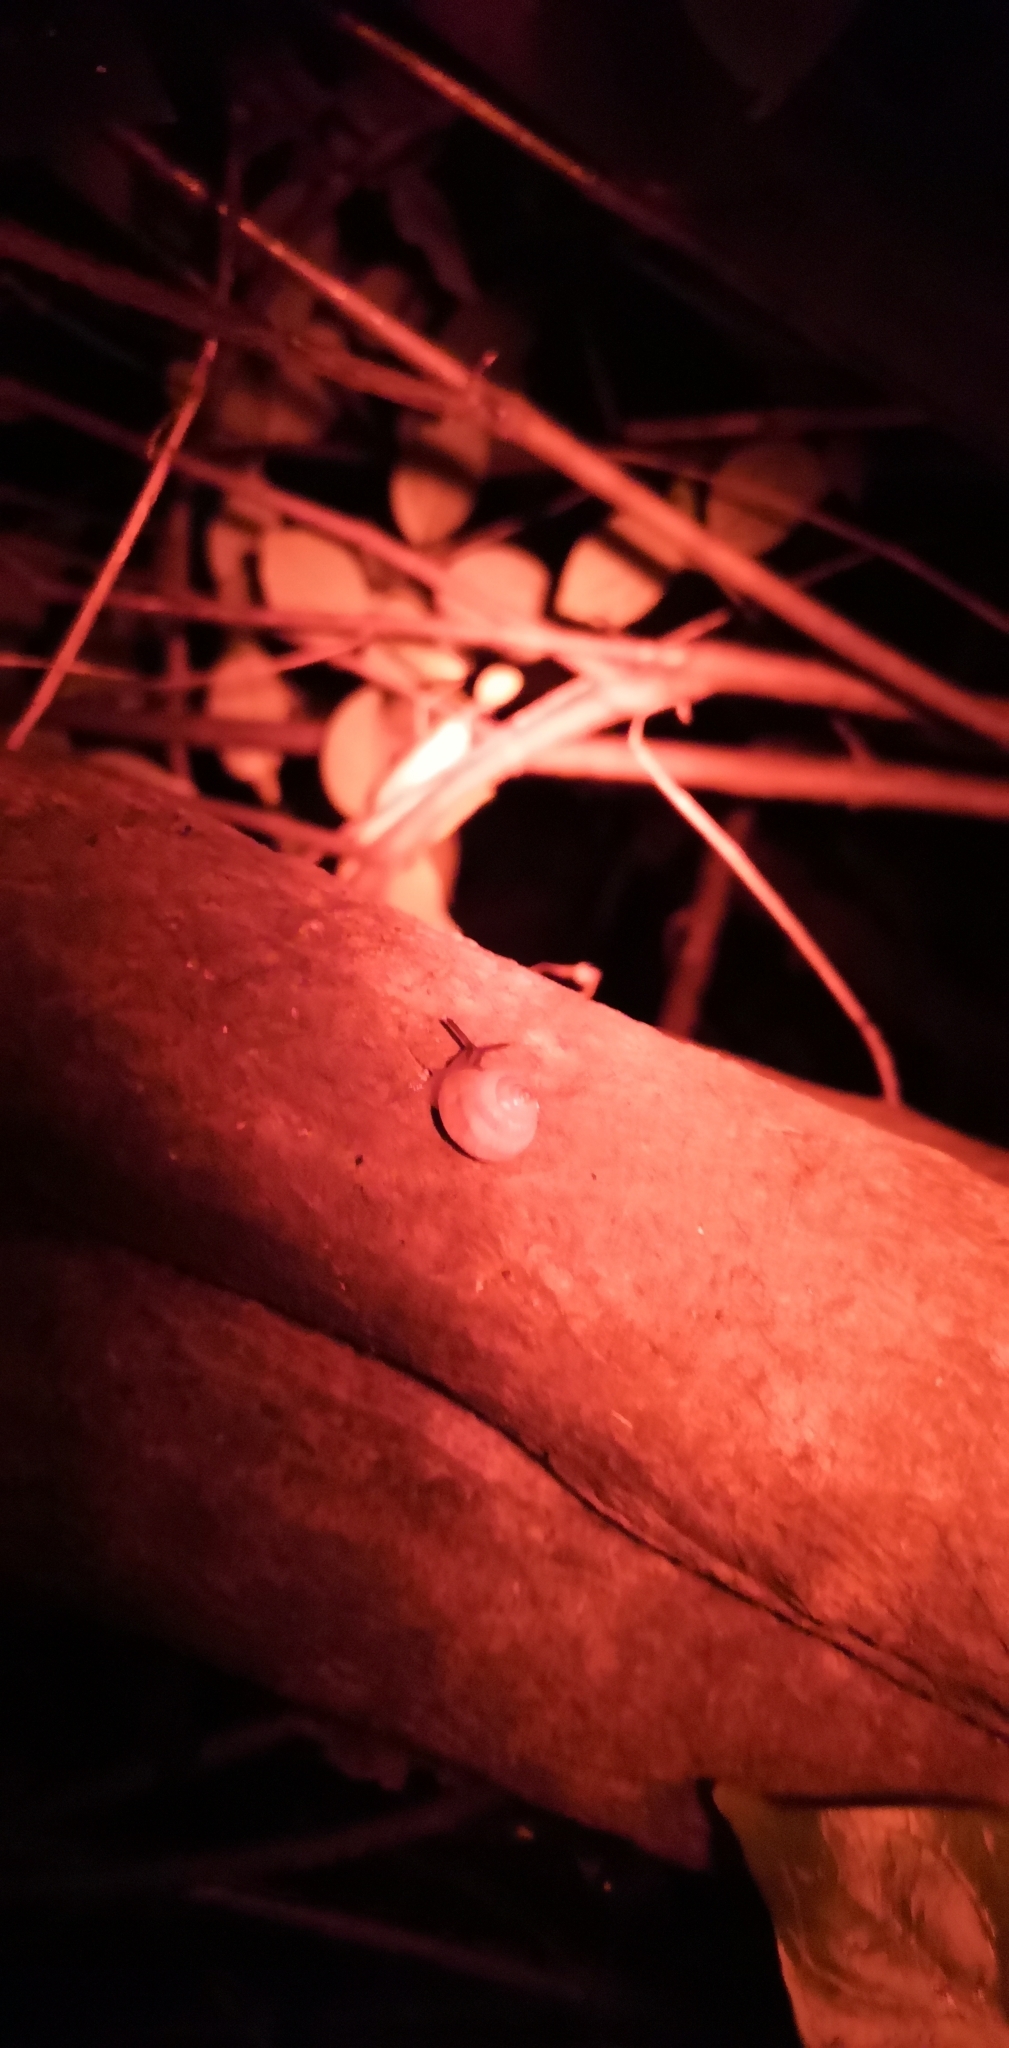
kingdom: Animalia
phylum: Mollusca
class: Gastropoda
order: Stylommatophora
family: Charopidae
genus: Serpho
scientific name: Serpho
